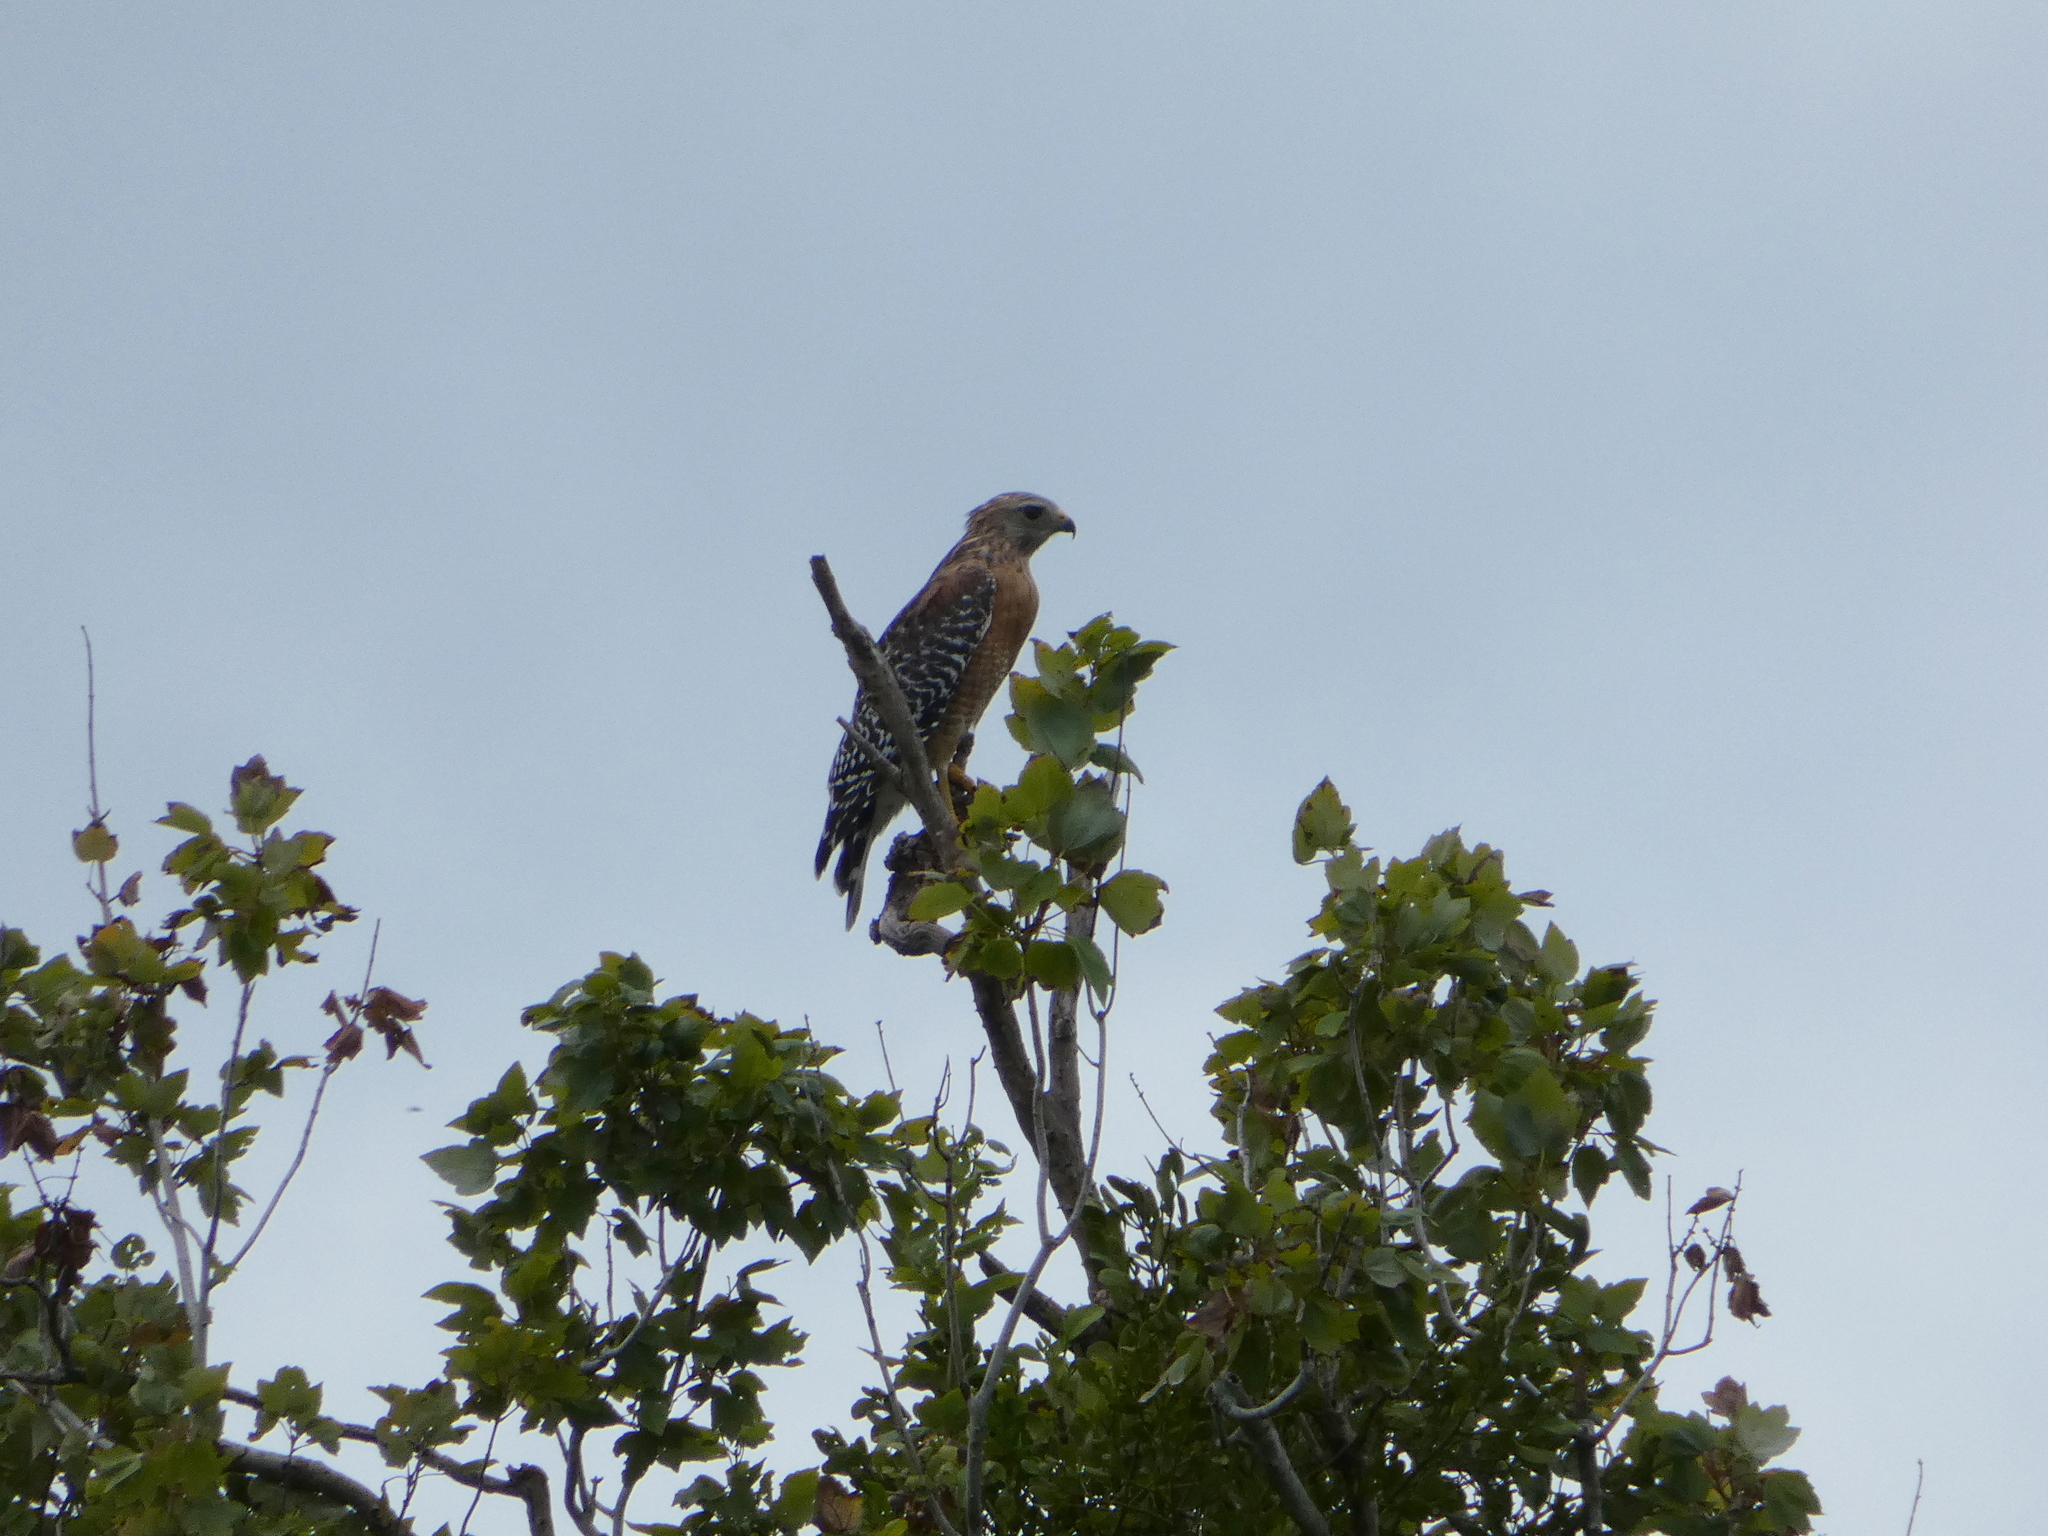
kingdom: Animalia
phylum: Chordata
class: Aves
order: Accipitriformes
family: Accipitridae
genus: Buteo
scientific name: Buteo lineatus
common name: Red-shouldered hawk
